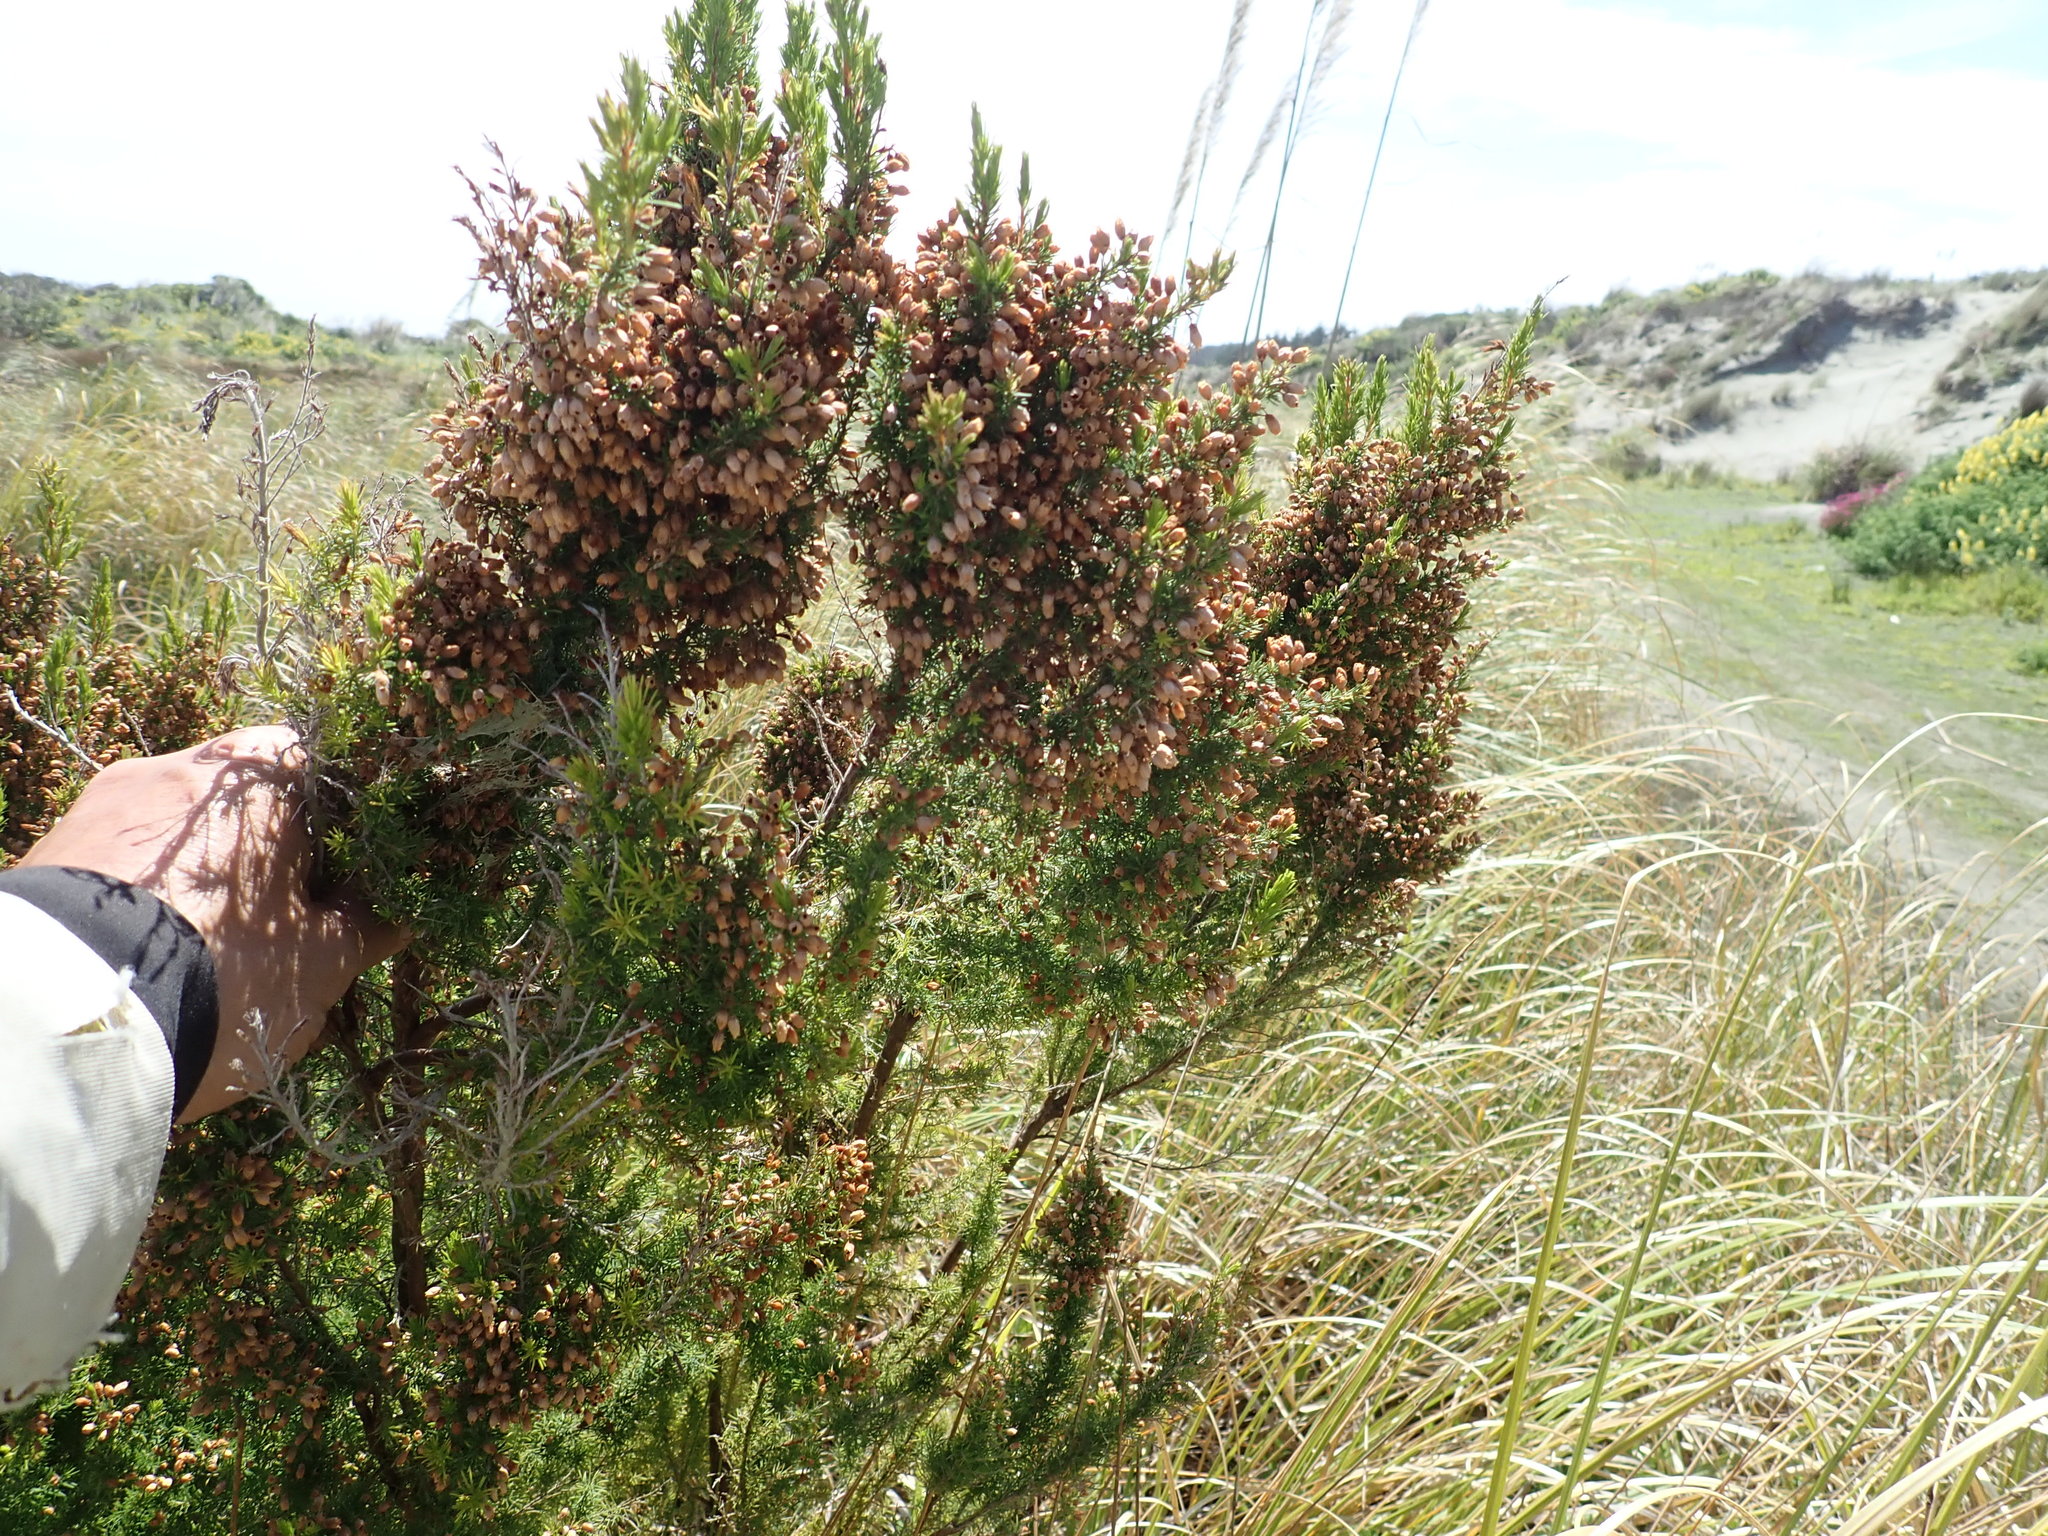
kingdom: Plantae
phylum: Tracheophyta
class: Magnoliopsida
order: Ericales
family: Ericaceae
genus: Erica
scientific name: Erica lusitanica
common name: Spanish heath
